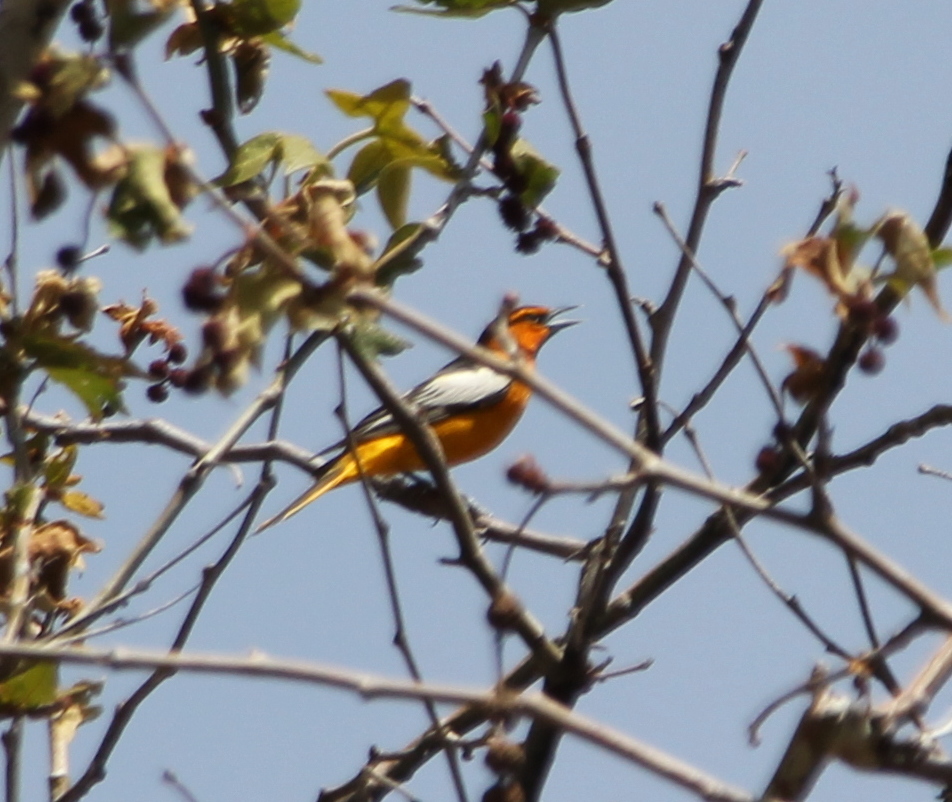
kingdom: Animalia
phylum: Chordata
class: Aves
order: Passeriformes
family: Icteridae
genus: Icterus
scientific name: Icterus bullockii
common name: Bullock's oriole
